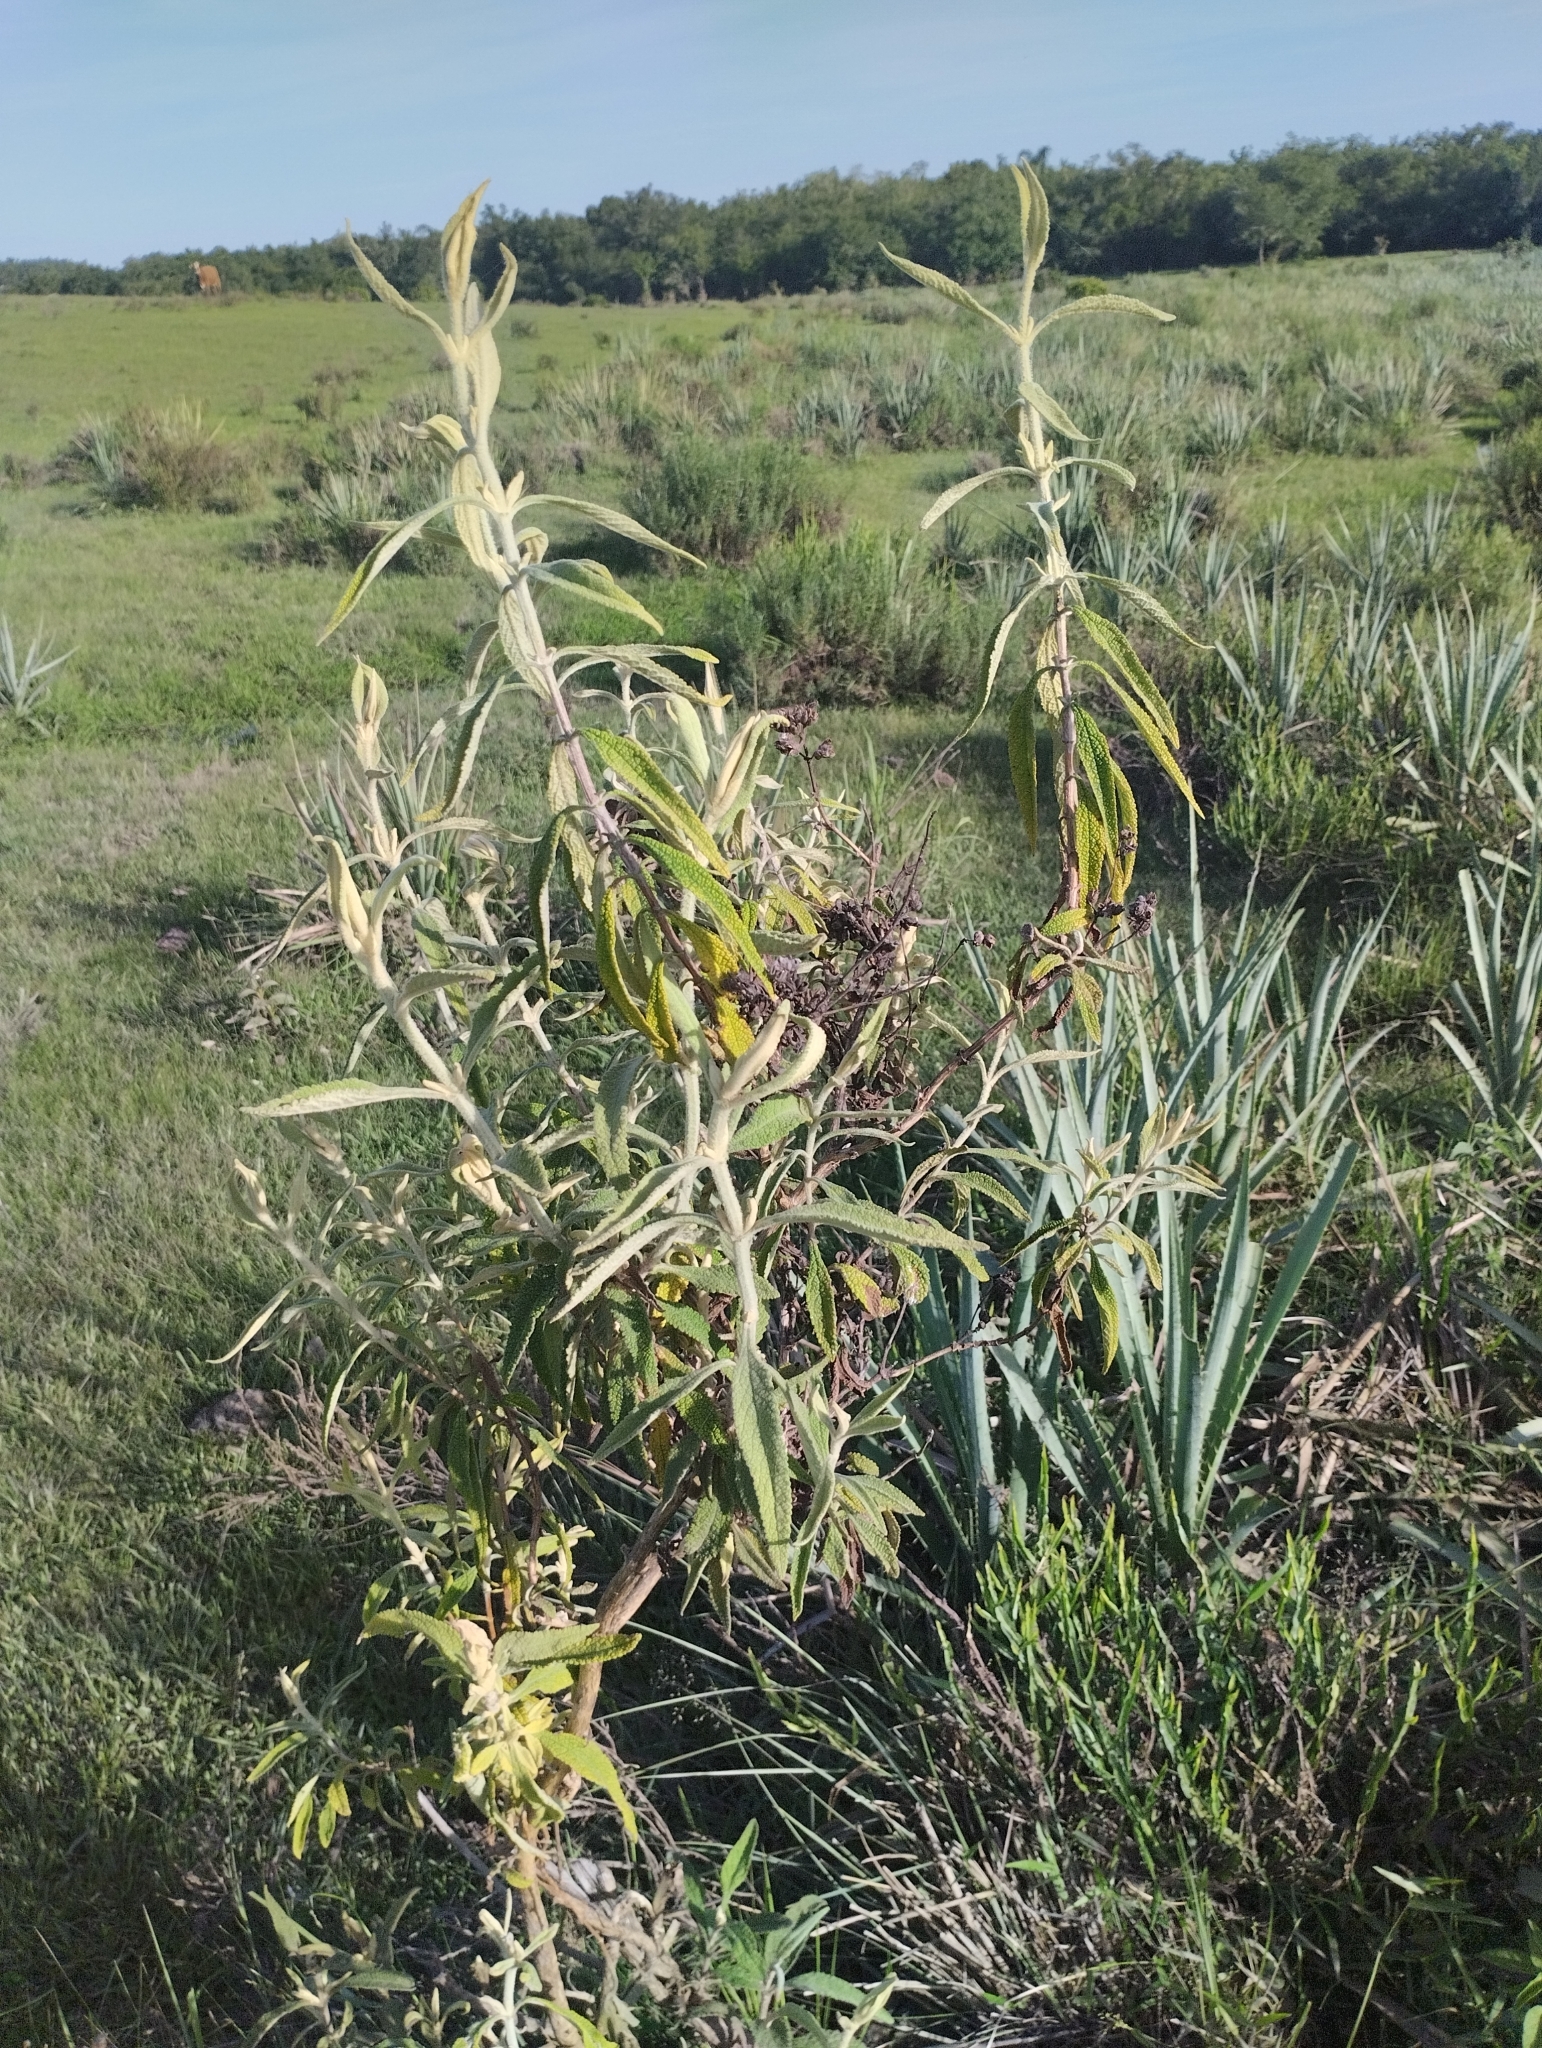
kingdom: Plantae
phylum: Tracheophyta
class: Magnoliopsida
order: Lamiales
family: Scrophulariaceae
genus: Buddleja
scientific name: Buddleja grandiflora
